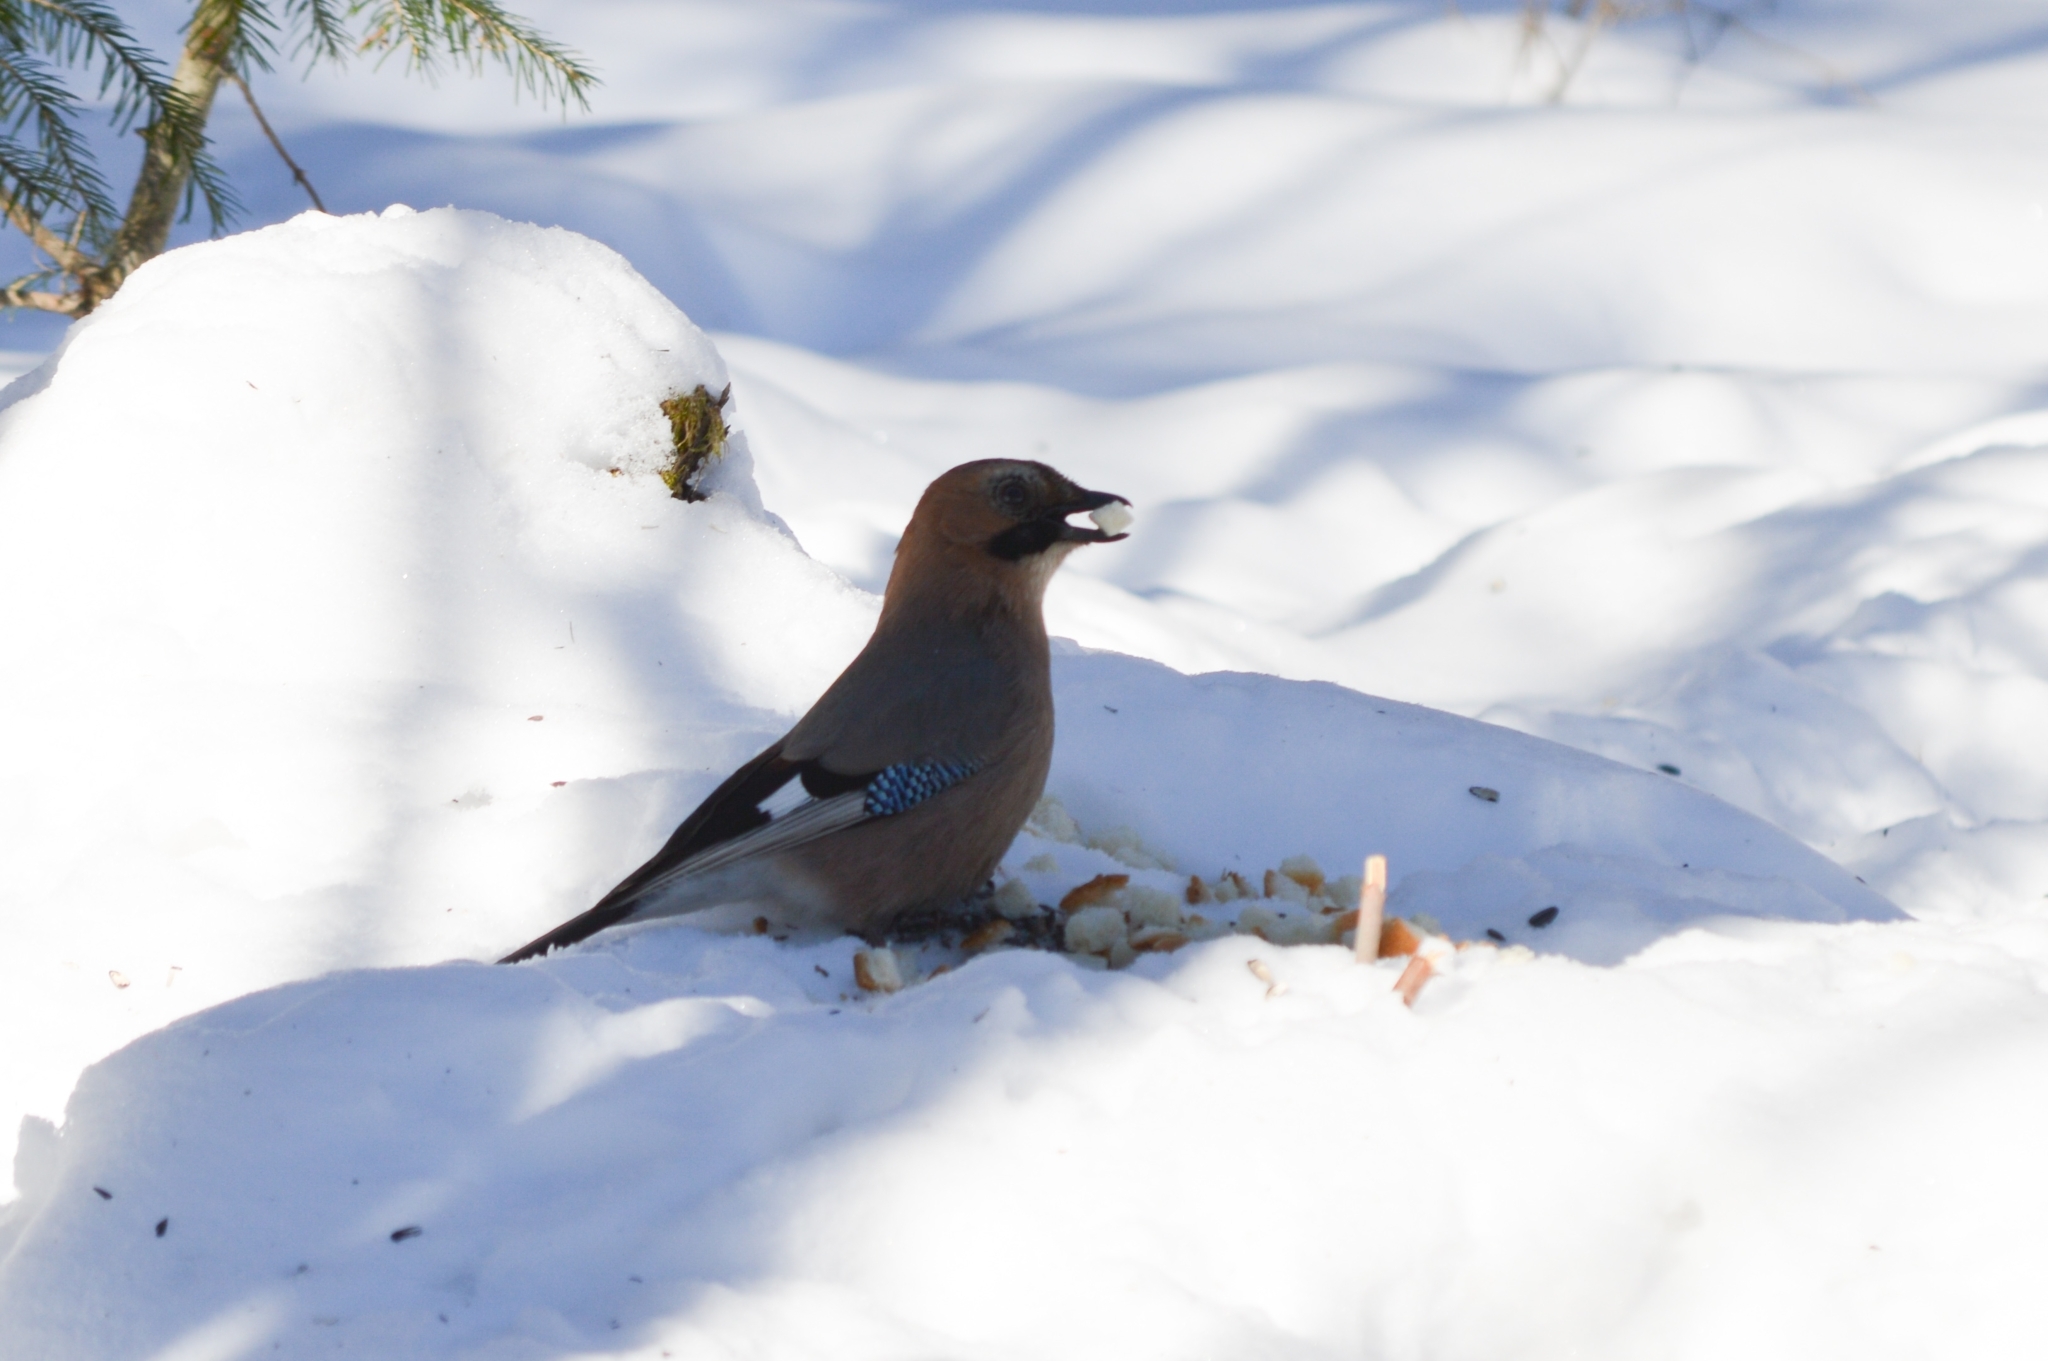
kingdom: Animalia
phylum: Chordata
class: Aves
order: Passeriformes
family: Corvidae
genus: Garrulus
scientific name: Garrulus glandarius
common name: Eurasian jay
